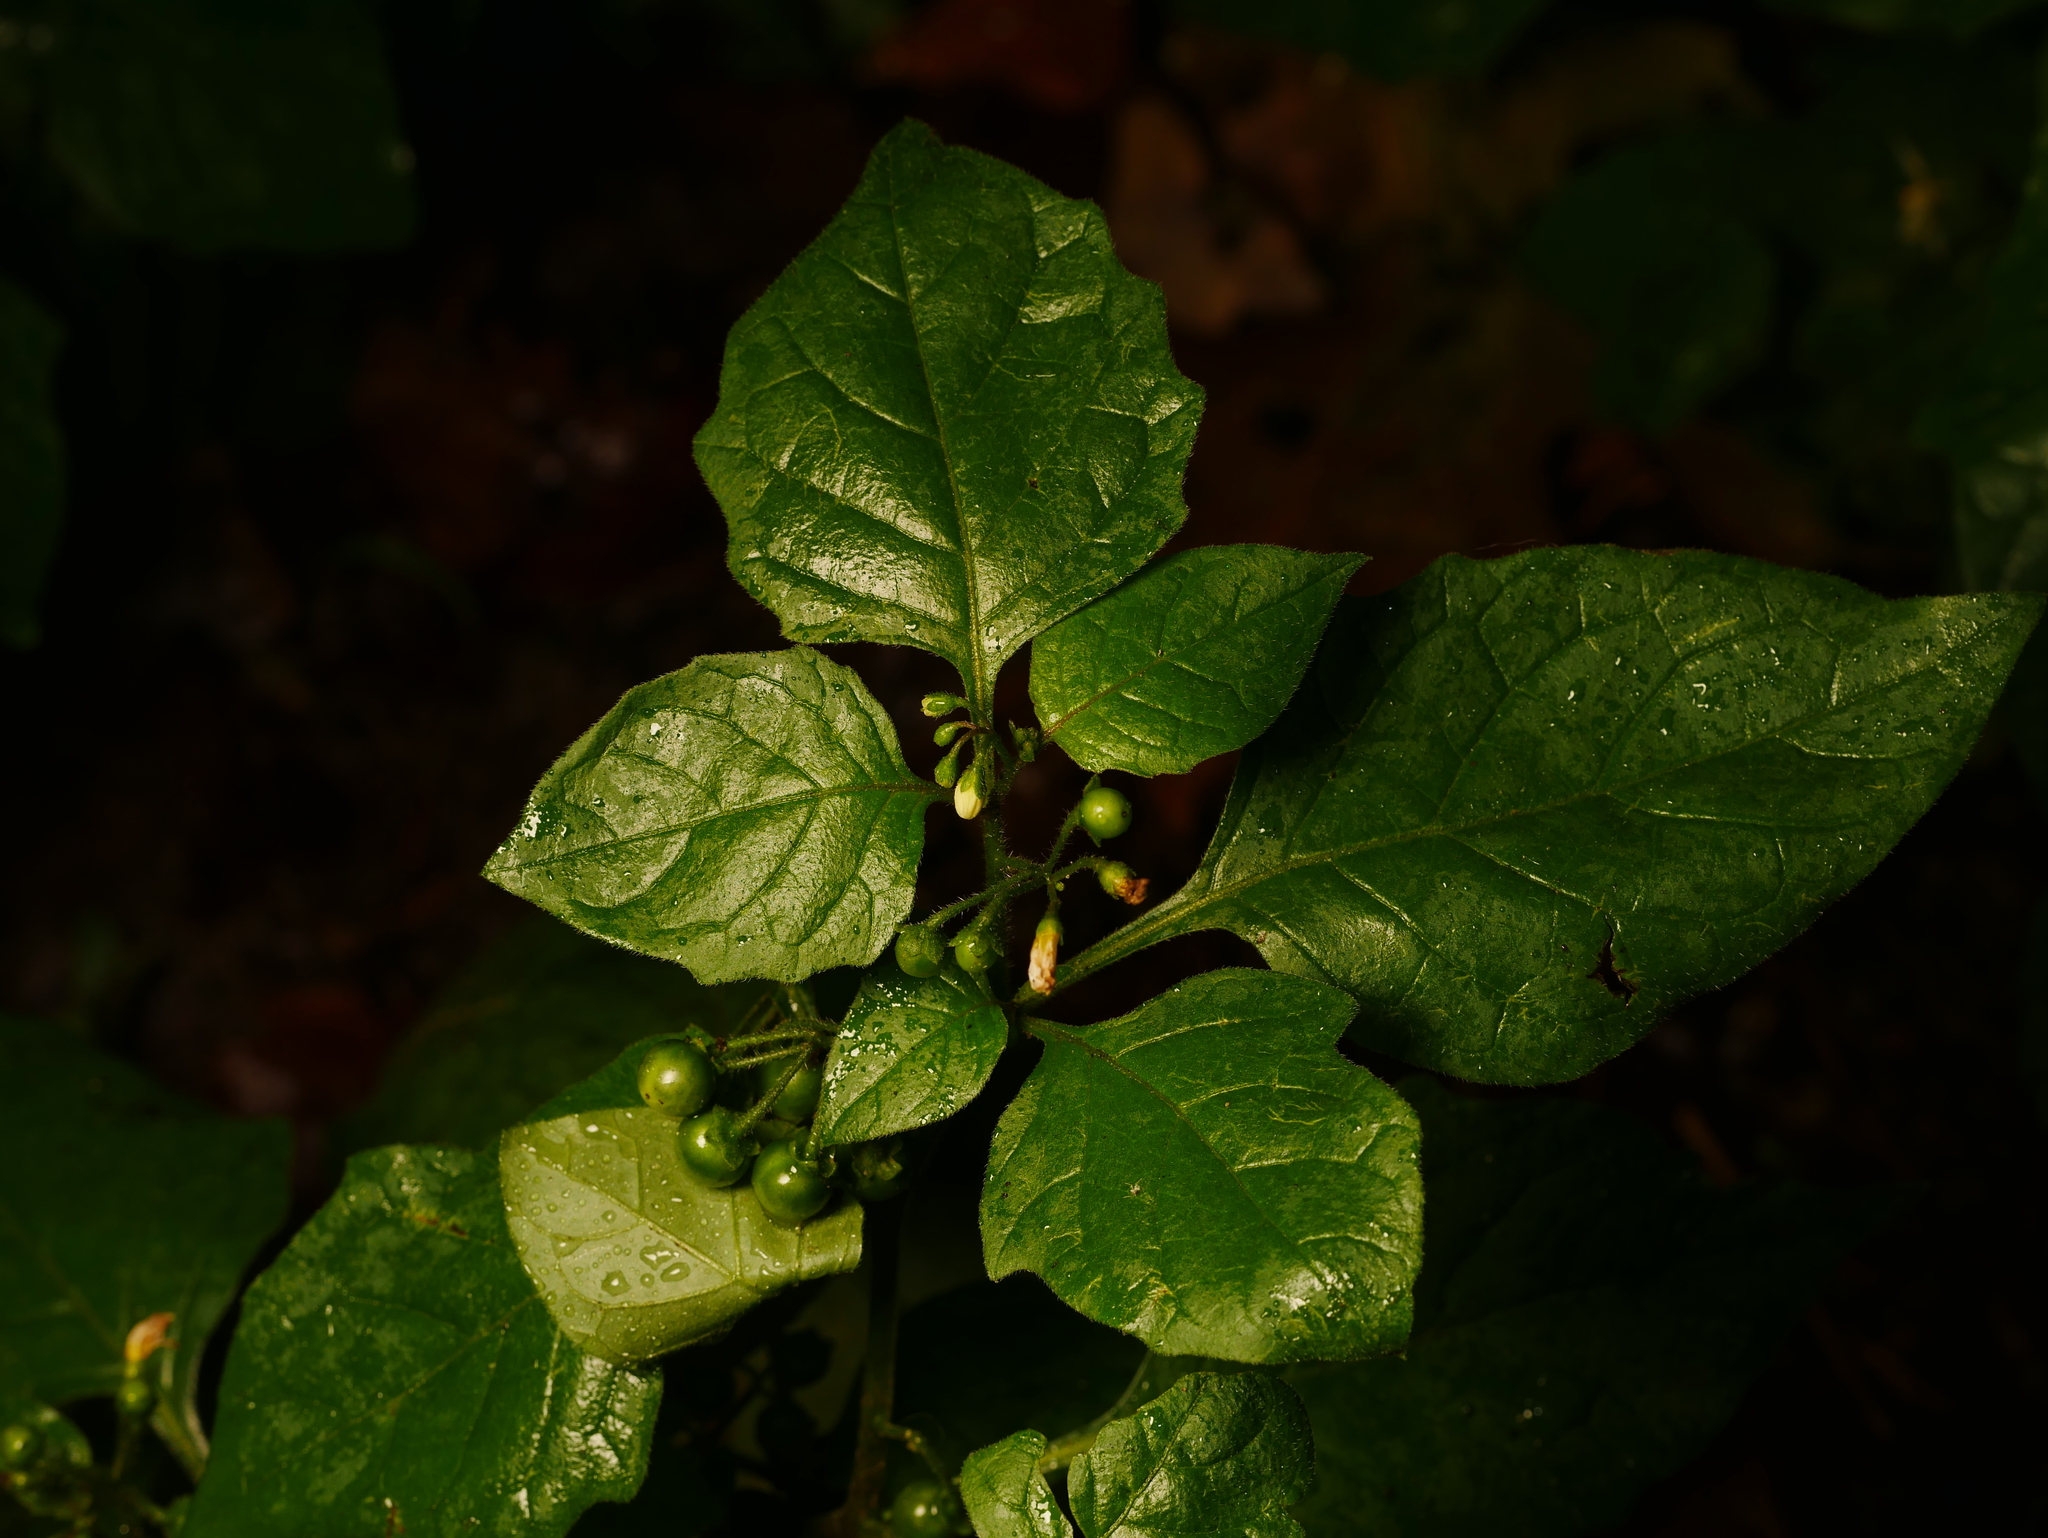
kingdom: Plantae
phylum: Tracheophyta
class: Magnoliopsida
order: Solanales
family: Solanaceae
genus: Solanum
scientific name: Solanum nigrum
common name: Black nightshade
